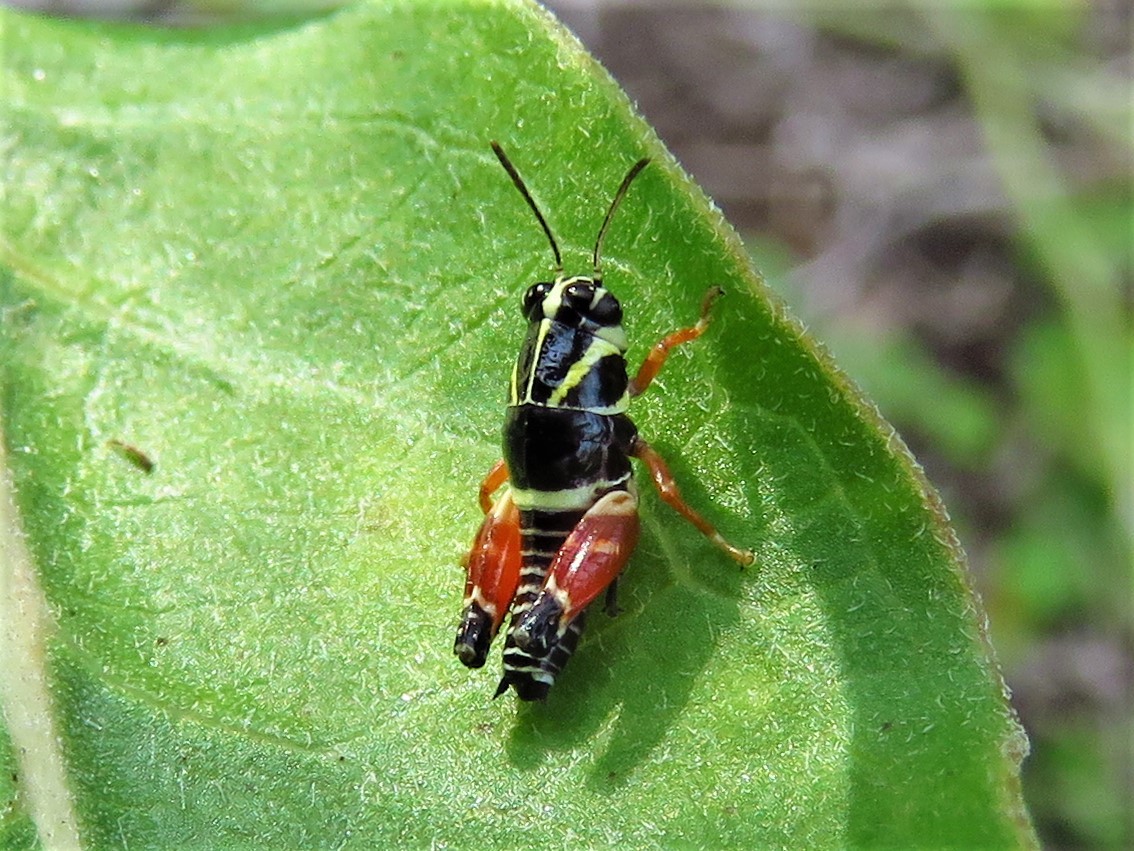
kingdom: Animalia
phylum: Arthropoda
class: Insecta
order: Orthoptera
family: Acrididae
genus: Aidemona
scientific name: Aidemona azteca
